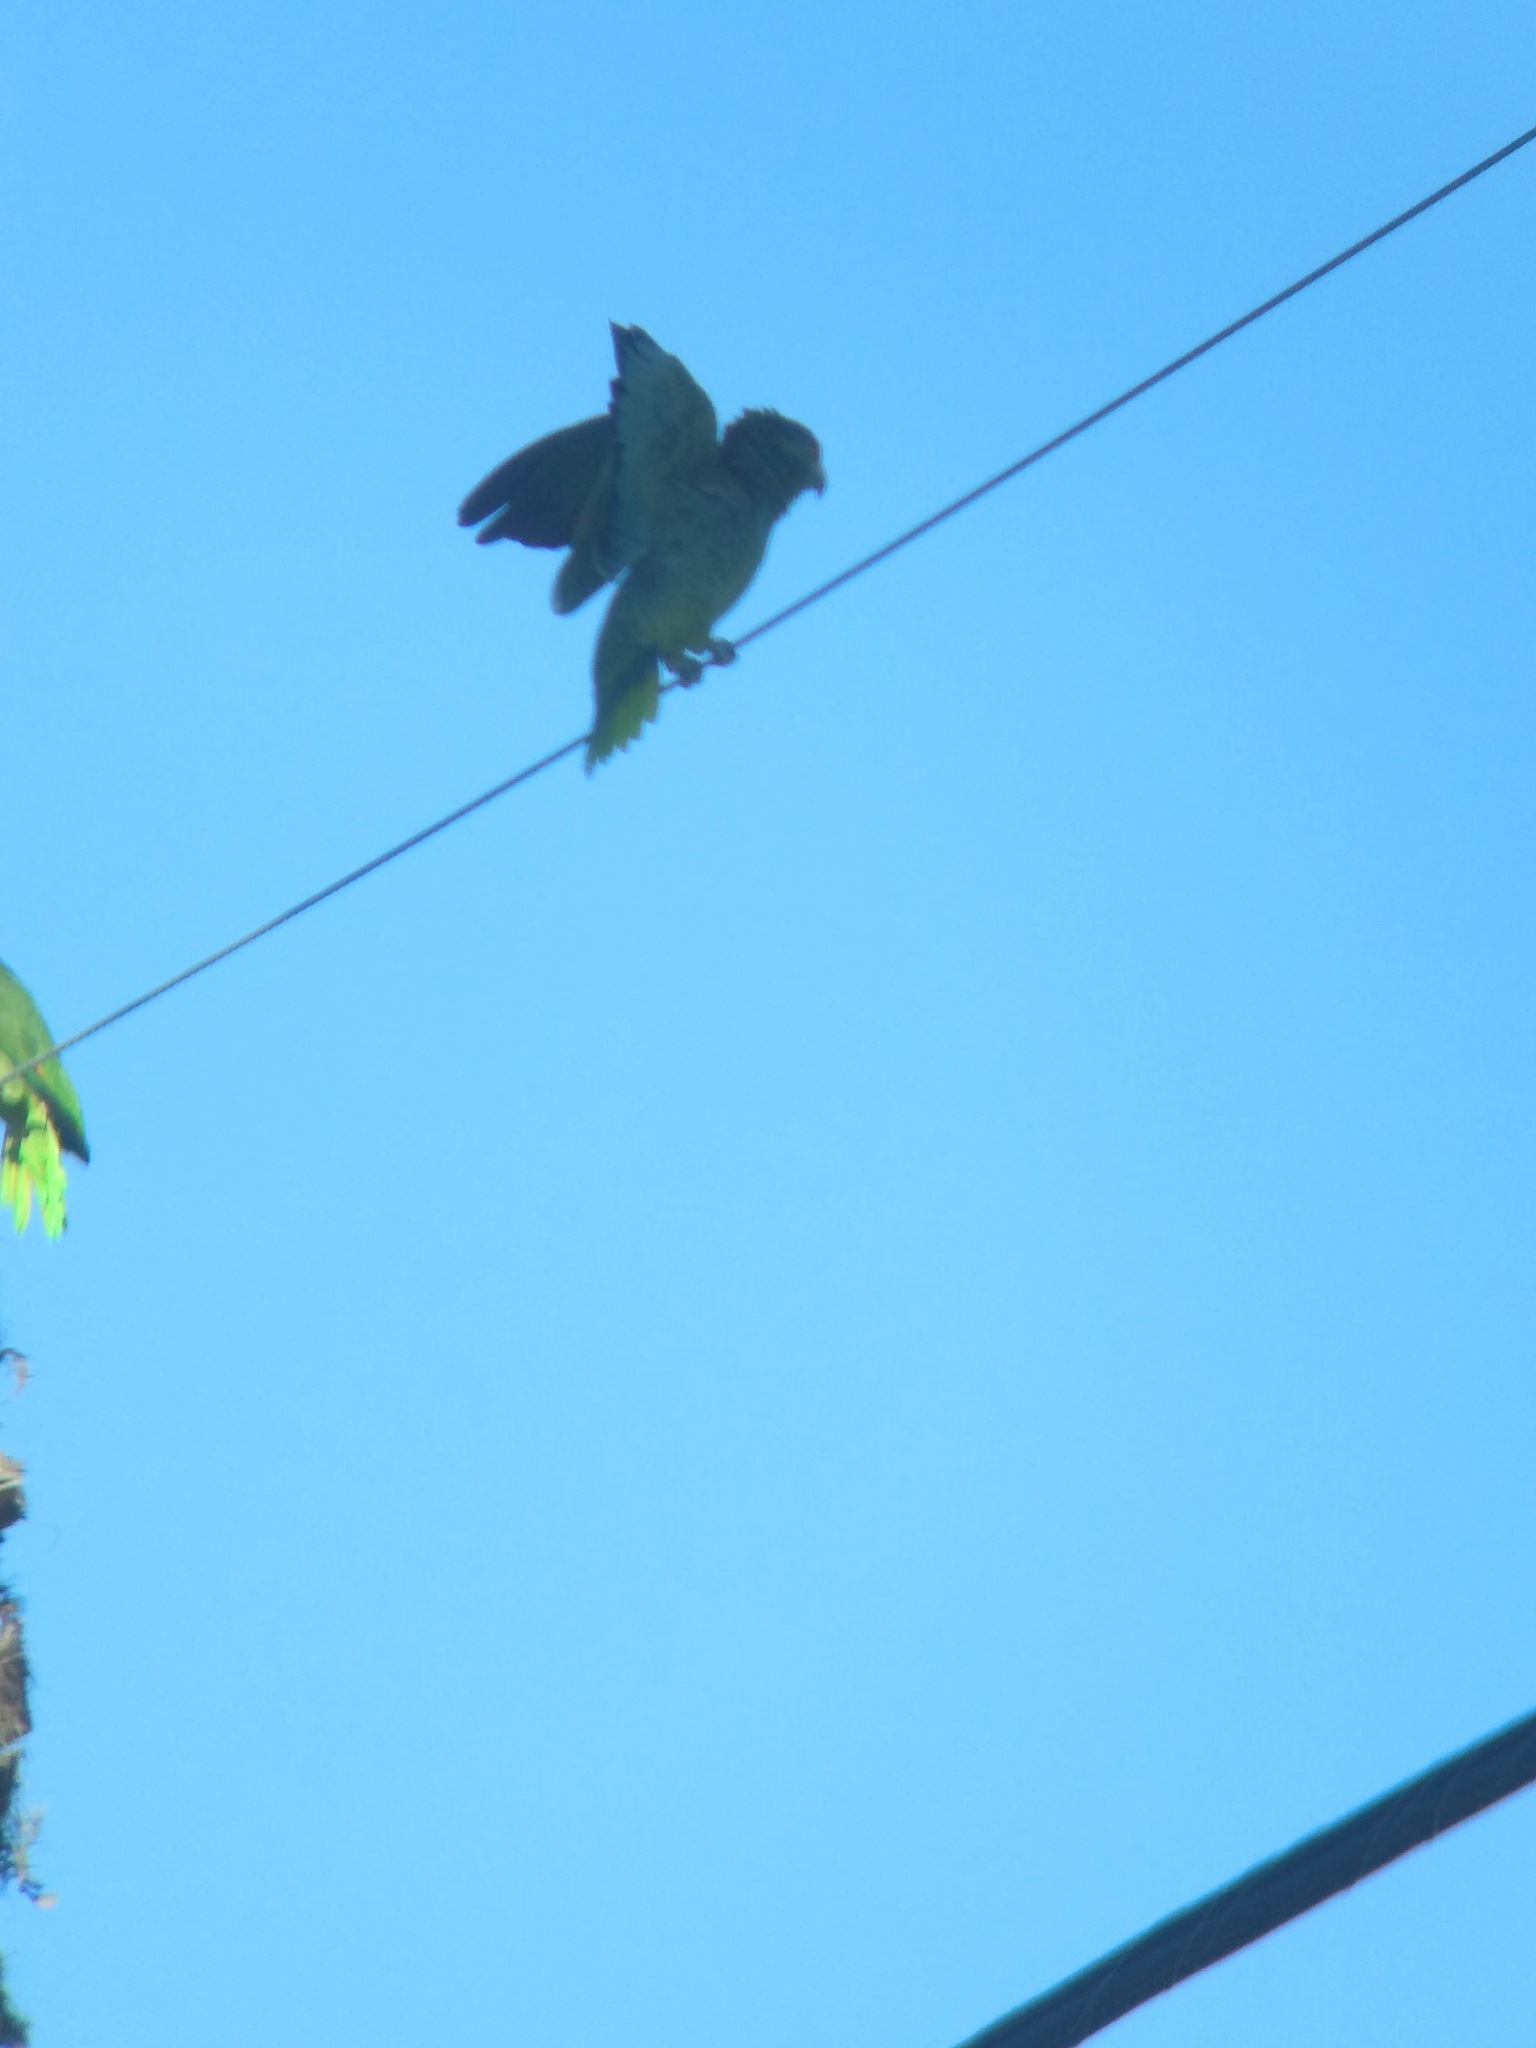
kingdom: Animalia
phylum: Chordata
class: Aves
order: Psittaciformes
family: Psittacidae
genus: Amazona
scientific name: Amazona
